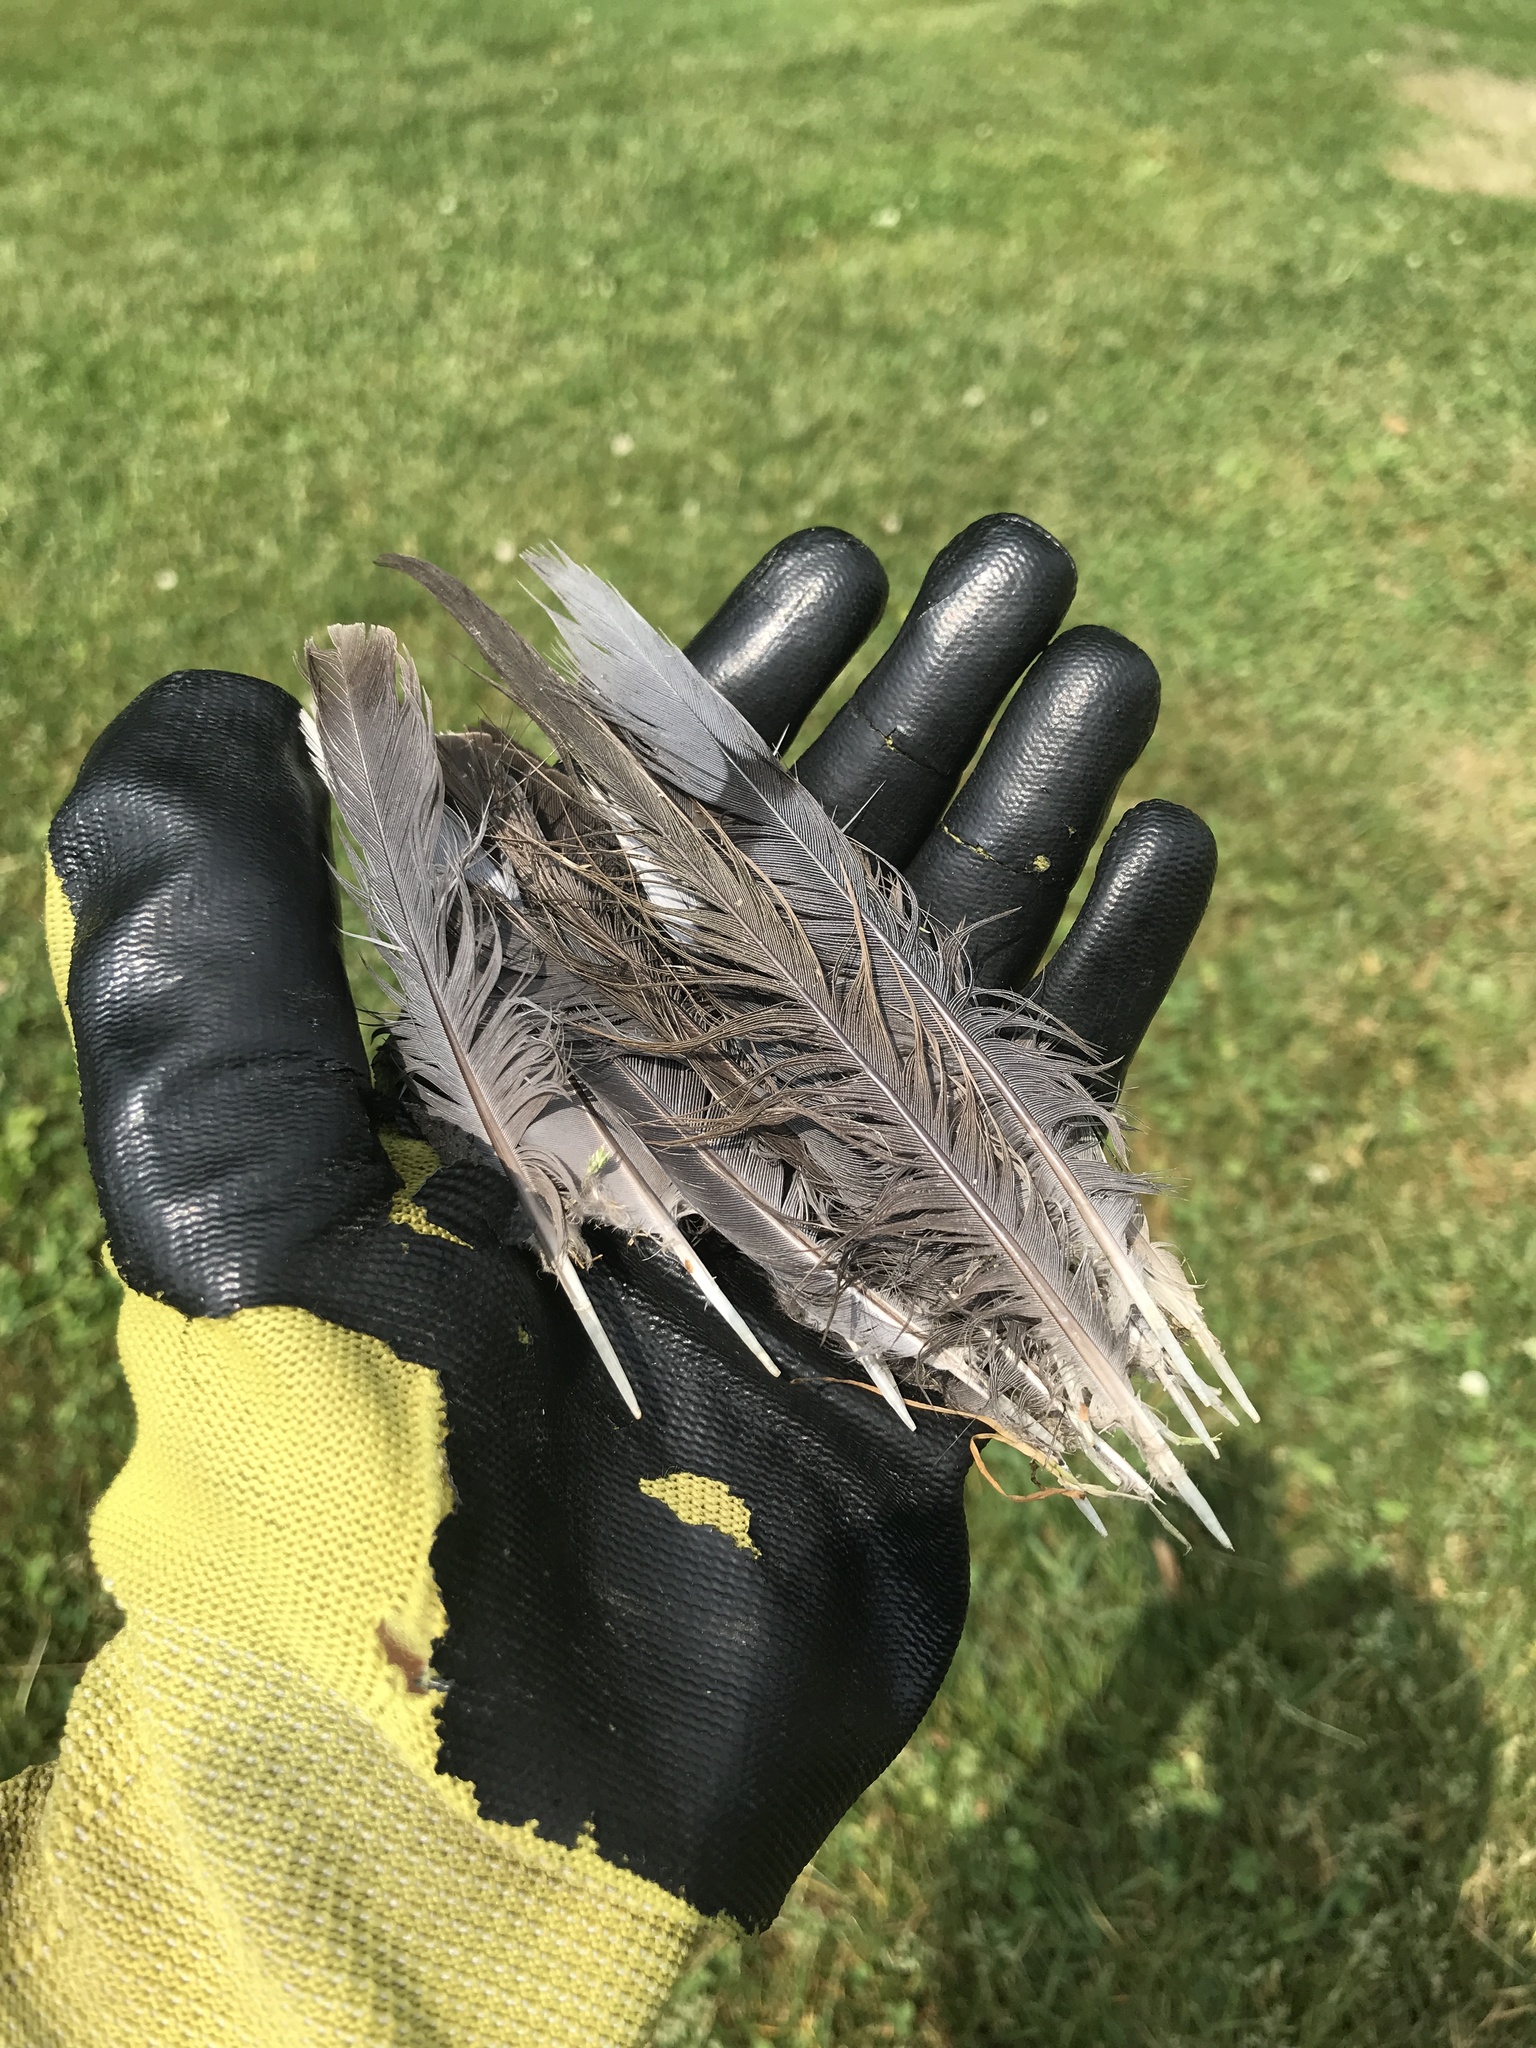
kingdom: Animalia
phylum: Chordata
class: Aves
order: Columbiformes
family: Columbidae
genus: Zenaida
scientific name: Zenaida macroura
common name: Mourning dove
